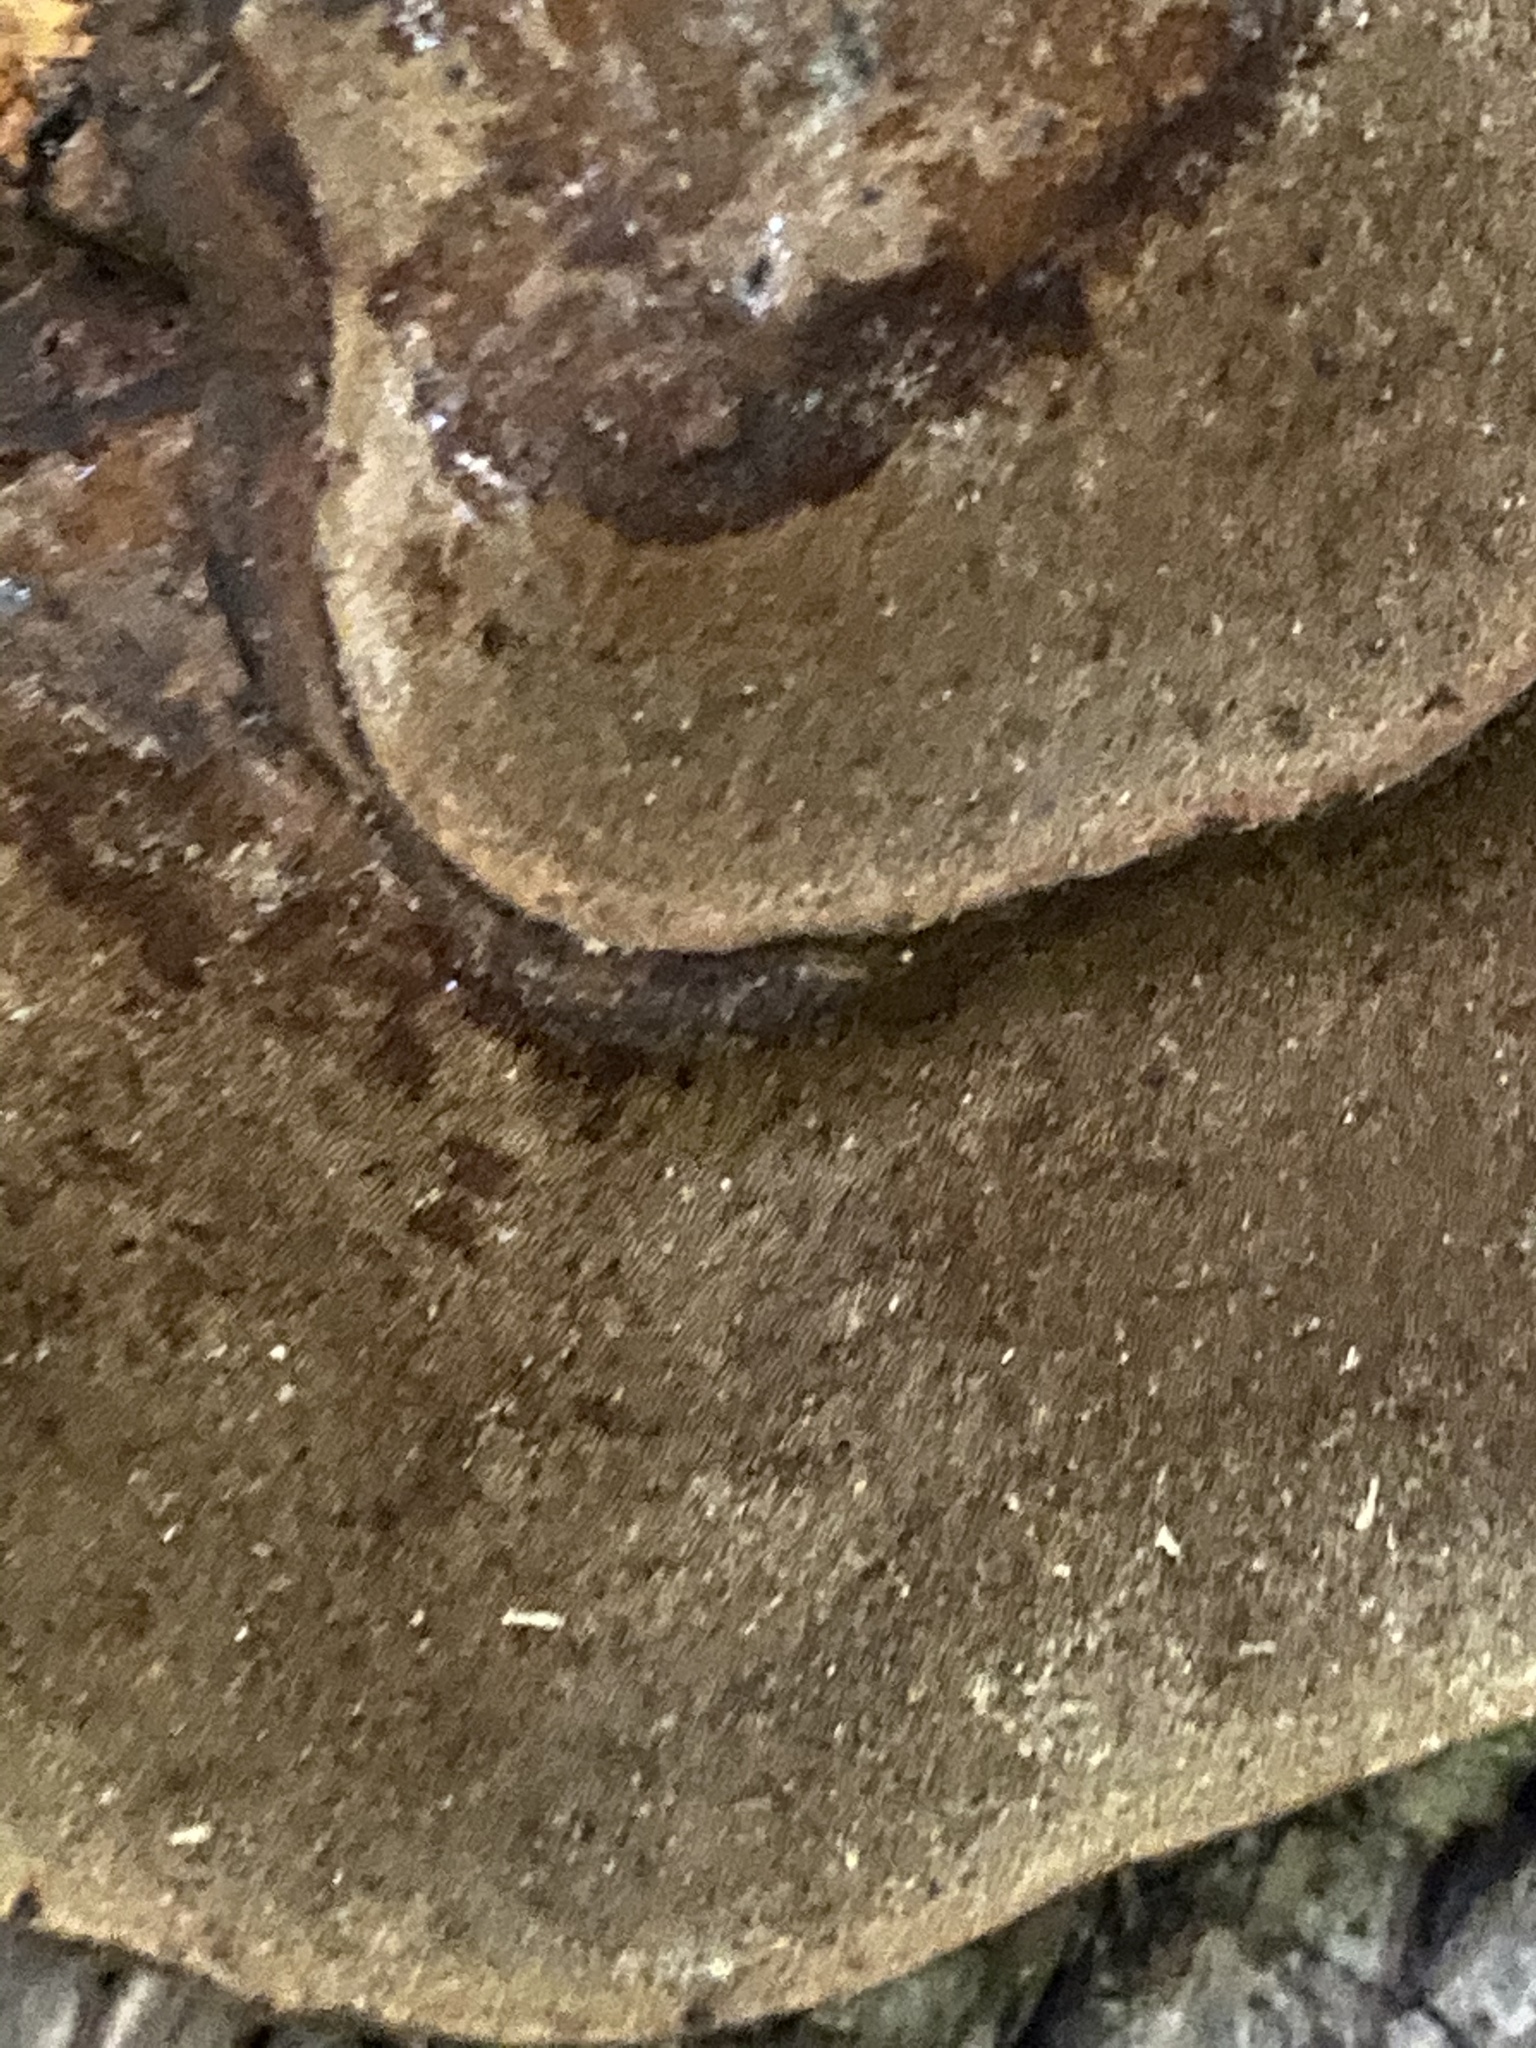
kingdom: Fungi
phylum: Basidiomycota
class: Agaricomycetes
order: Polyporales
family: Polyporaceae
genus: Fomes
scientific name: Fomes fasciatus
